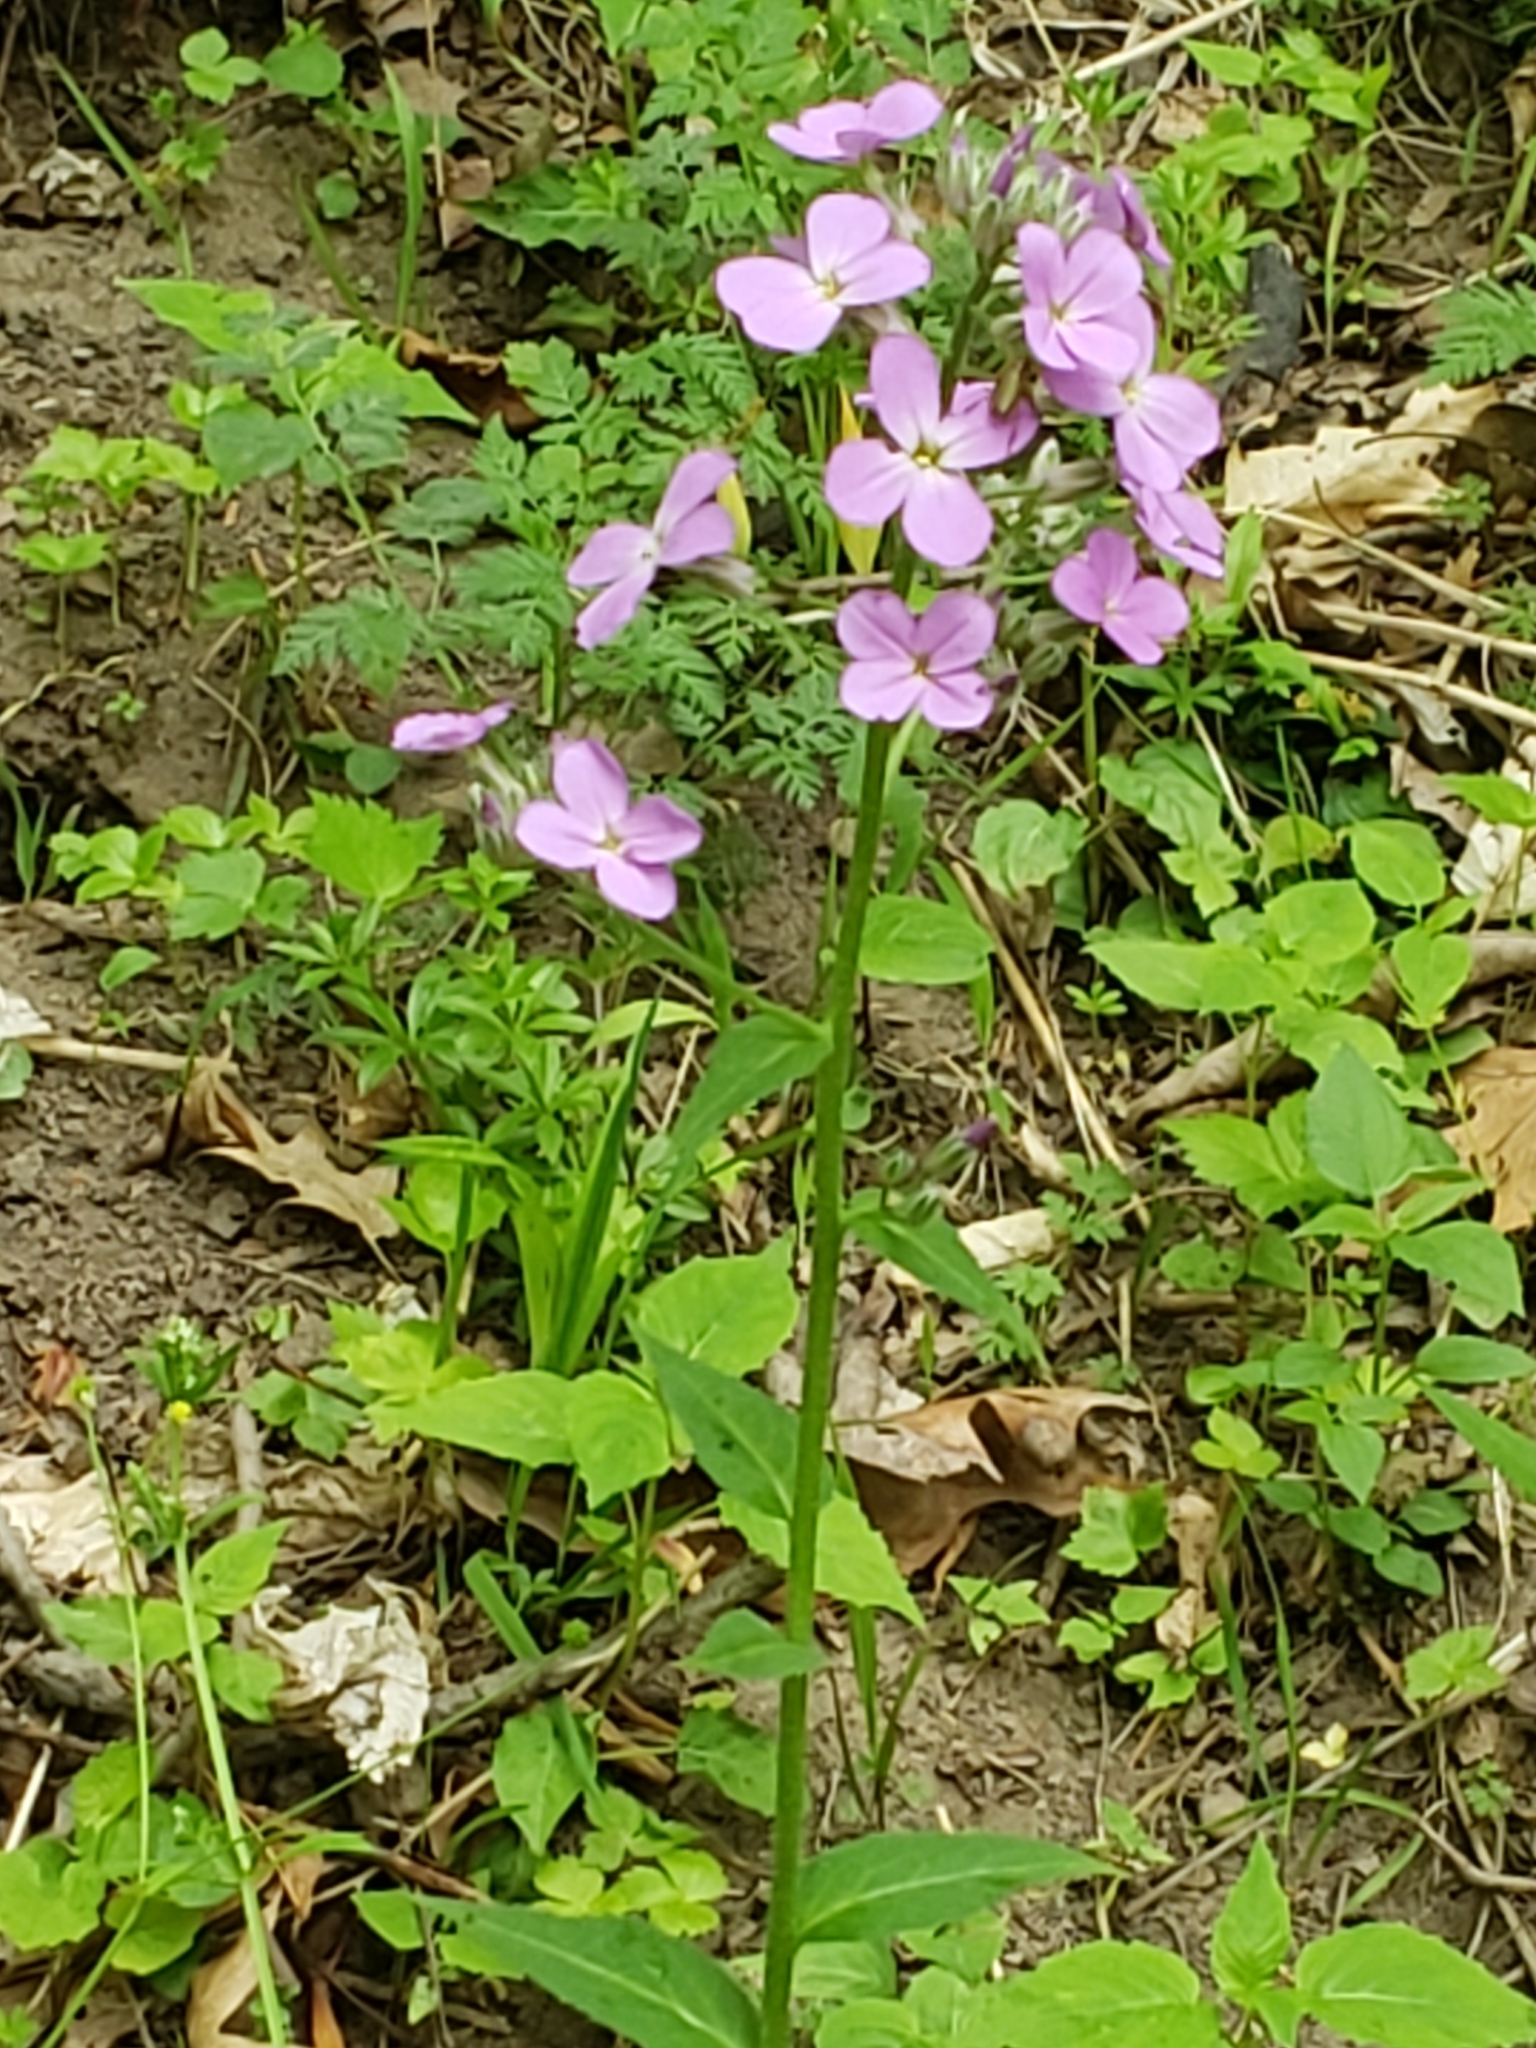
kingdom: Plantae
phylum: Tracheophyta
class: Magnoliopsida
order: Brassicales
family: Brassicaceae
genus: Hesperis
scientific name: Hesperis matronalis
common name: Dame's-violet
